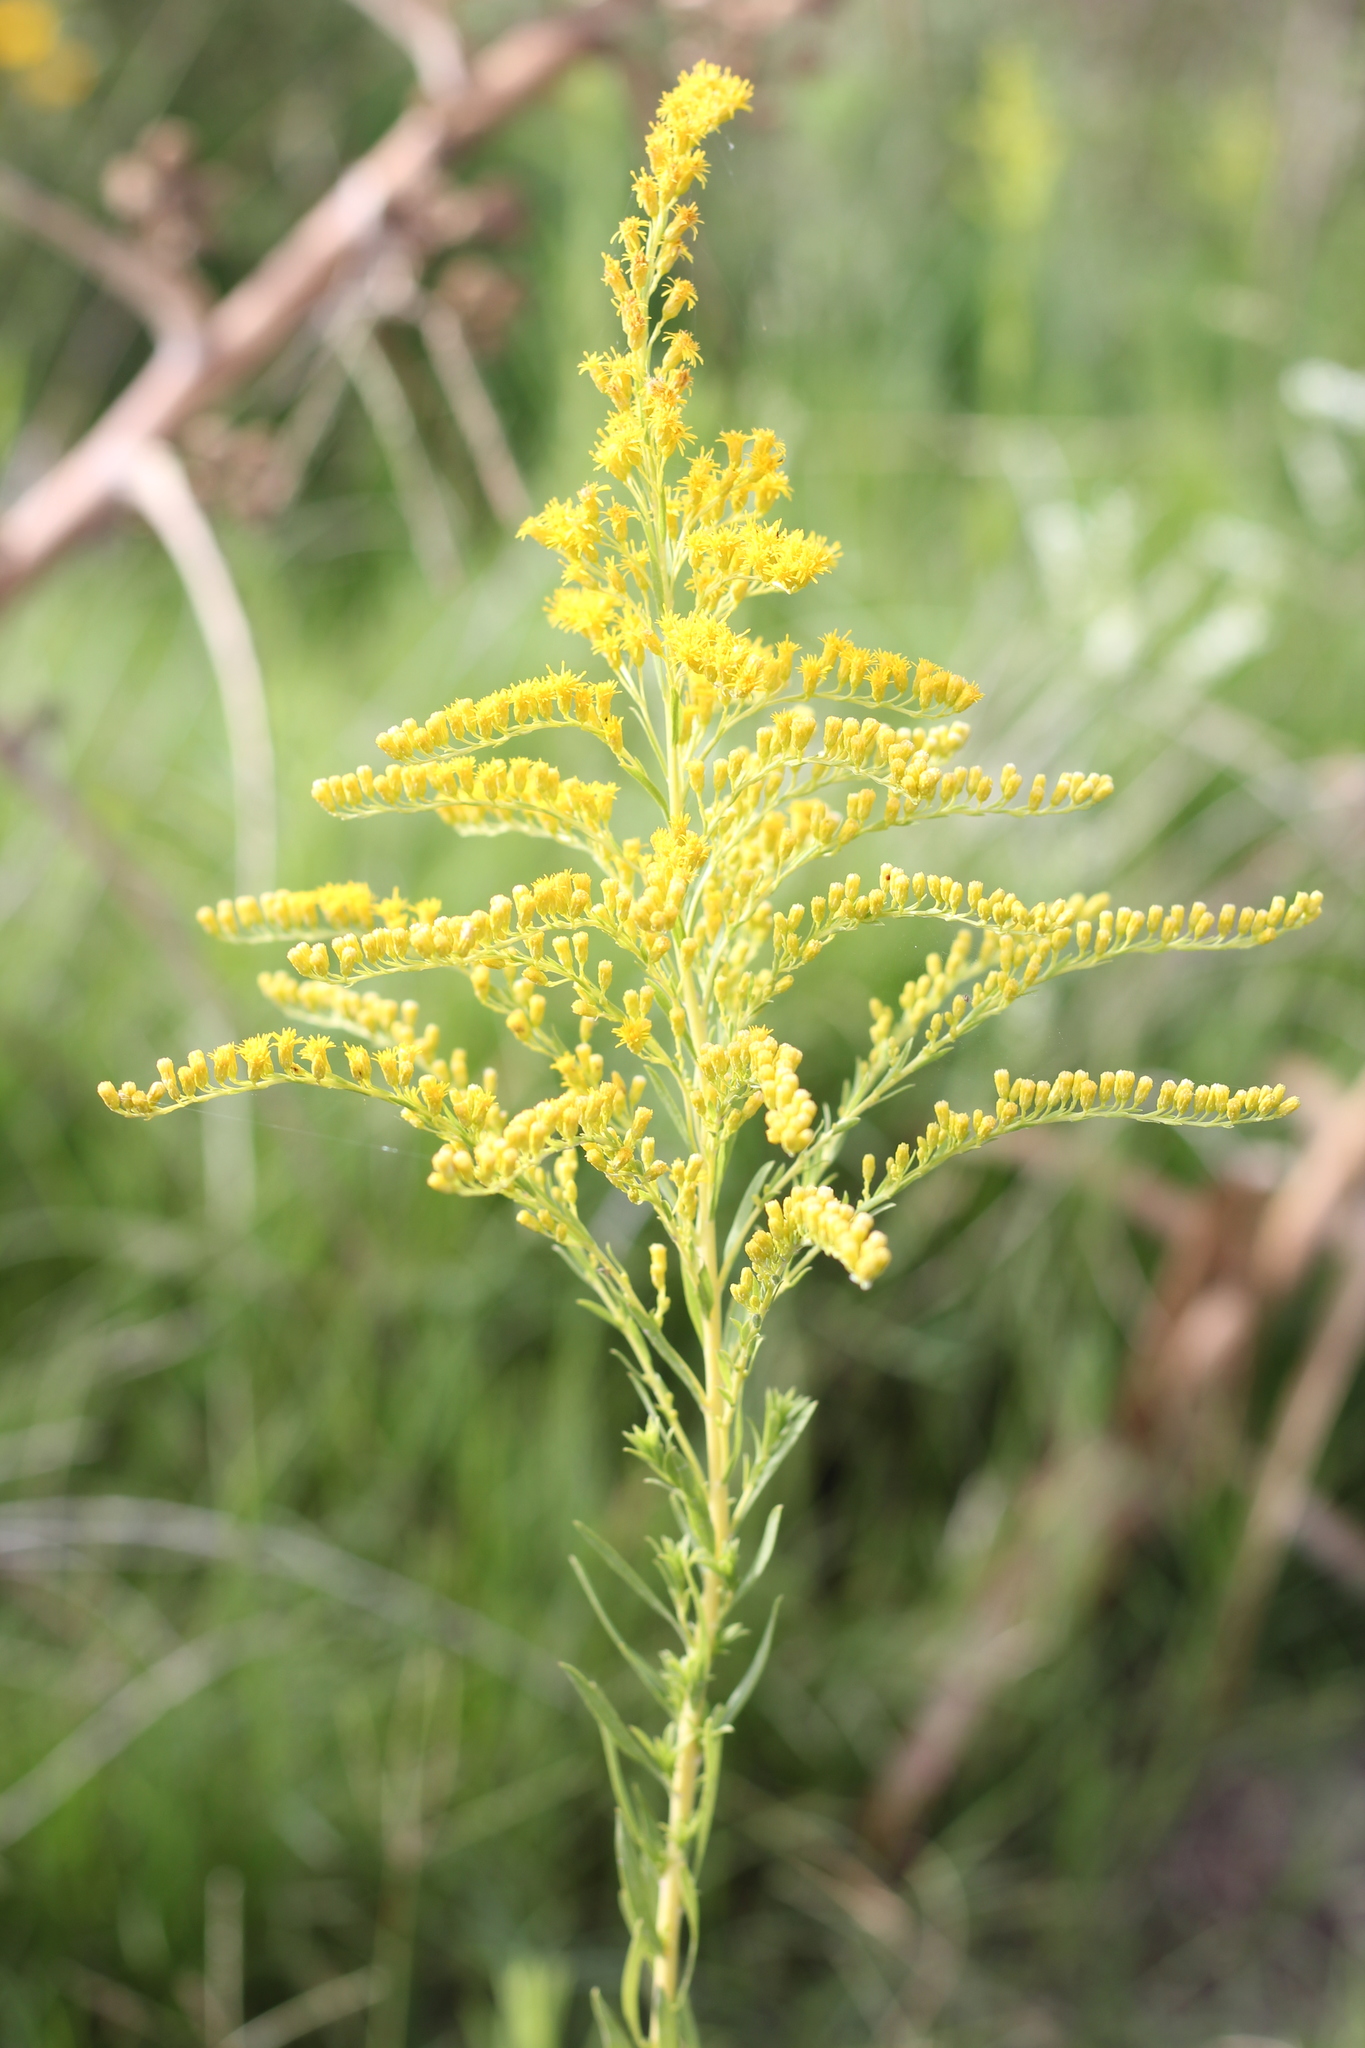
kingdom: Plantae
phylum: Tracheophyta
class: Magnoliopsida
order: Asterales
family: Asteraceae
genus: Solidago
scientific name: Solidago chilensis
